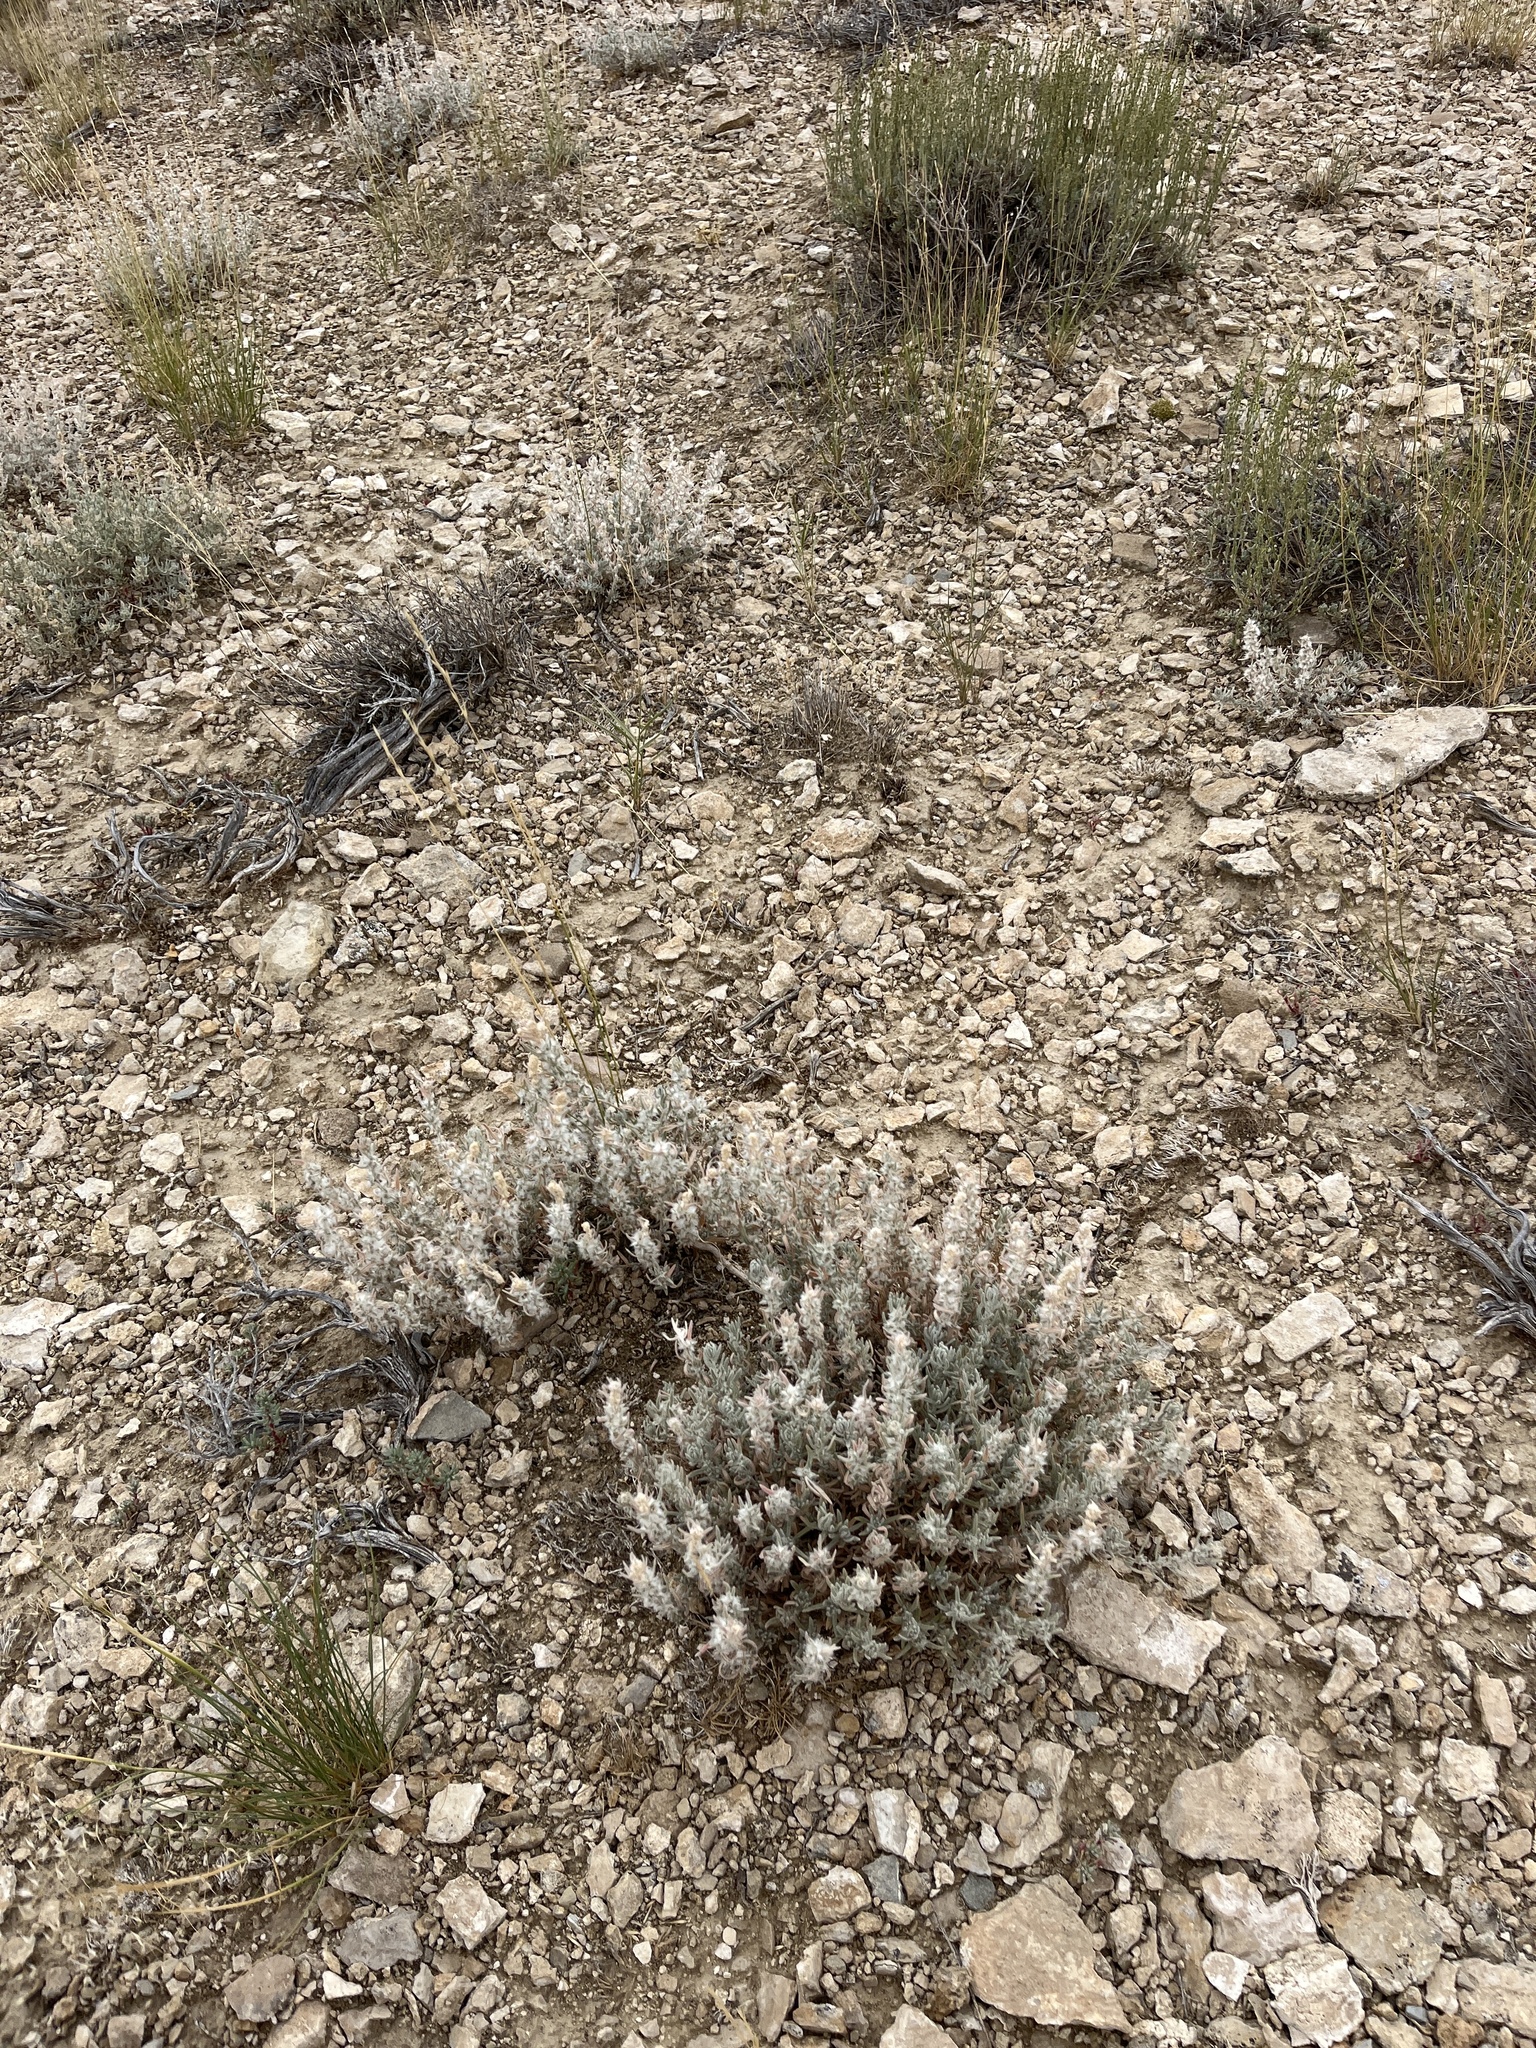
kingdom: Plantae
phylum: Tracheophyta
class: Magnoliopsida
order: Caryophyllales
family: Amaranthaceae
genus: Krascheninnikovia
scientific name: Krascheninnikovia lanata
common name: Winterfat
